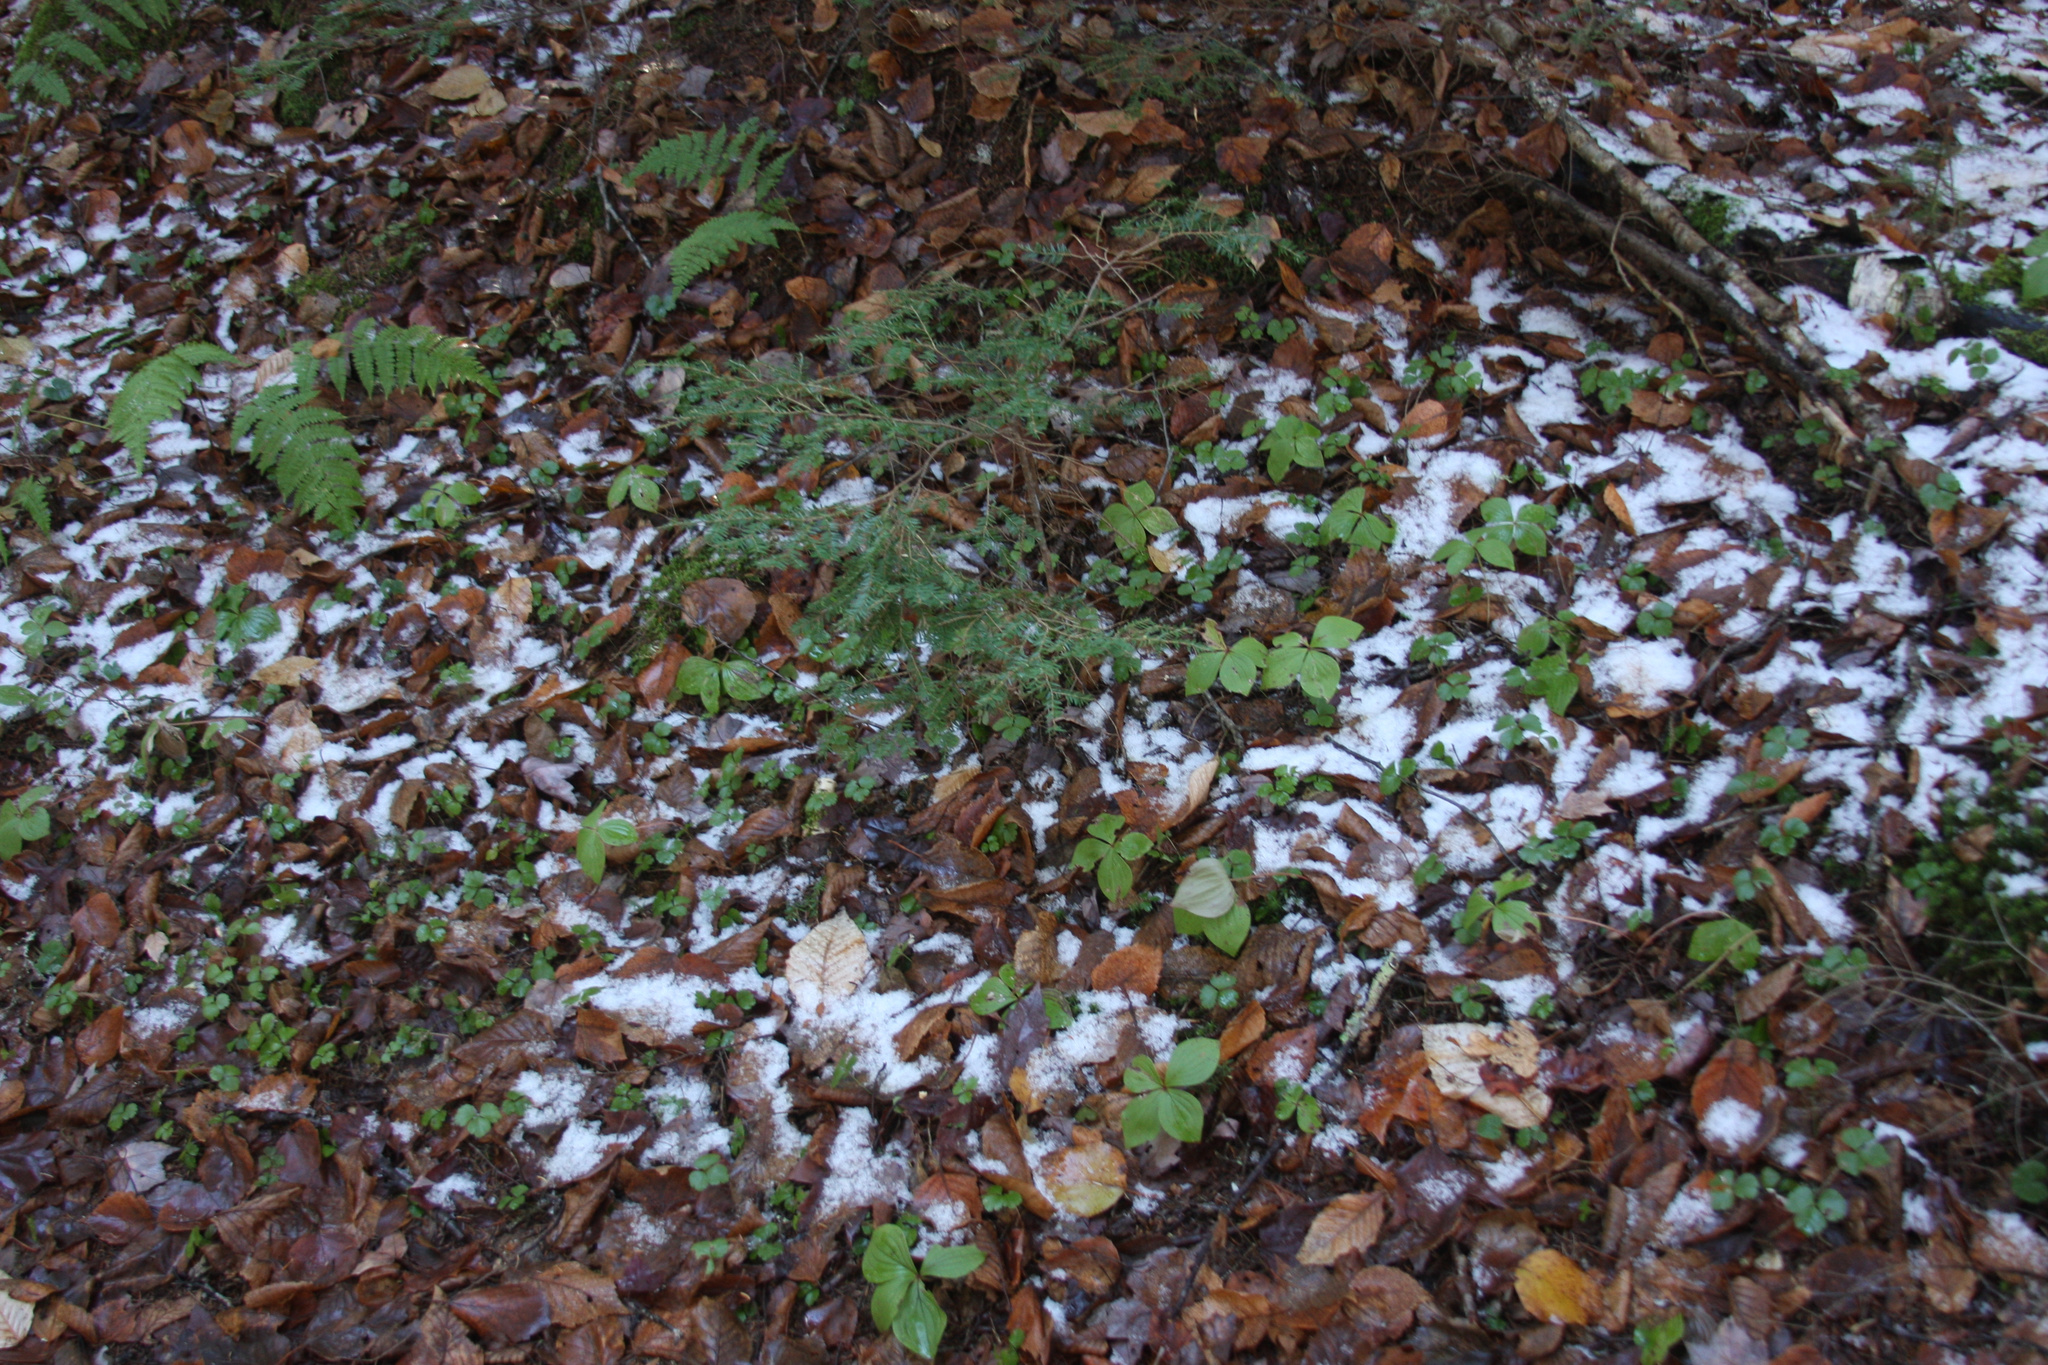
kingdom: Plantae
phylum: Tracheophyta
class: Magnoliopsida
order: Ranunculales
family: Ranunculaceae
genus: Coptis
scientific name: Coptis trifolia
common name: Canker-root
